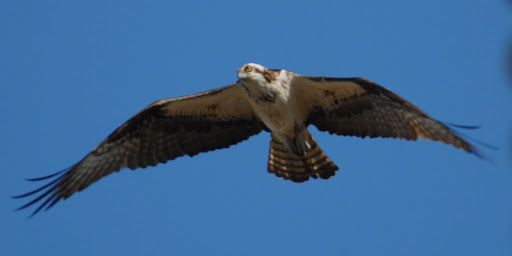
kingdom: Animalia
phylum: Chordata
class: Aves
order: Accipitriformes
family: Pandionidae
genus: Pandion
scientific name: Pandion haliaetus
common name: Osprey
